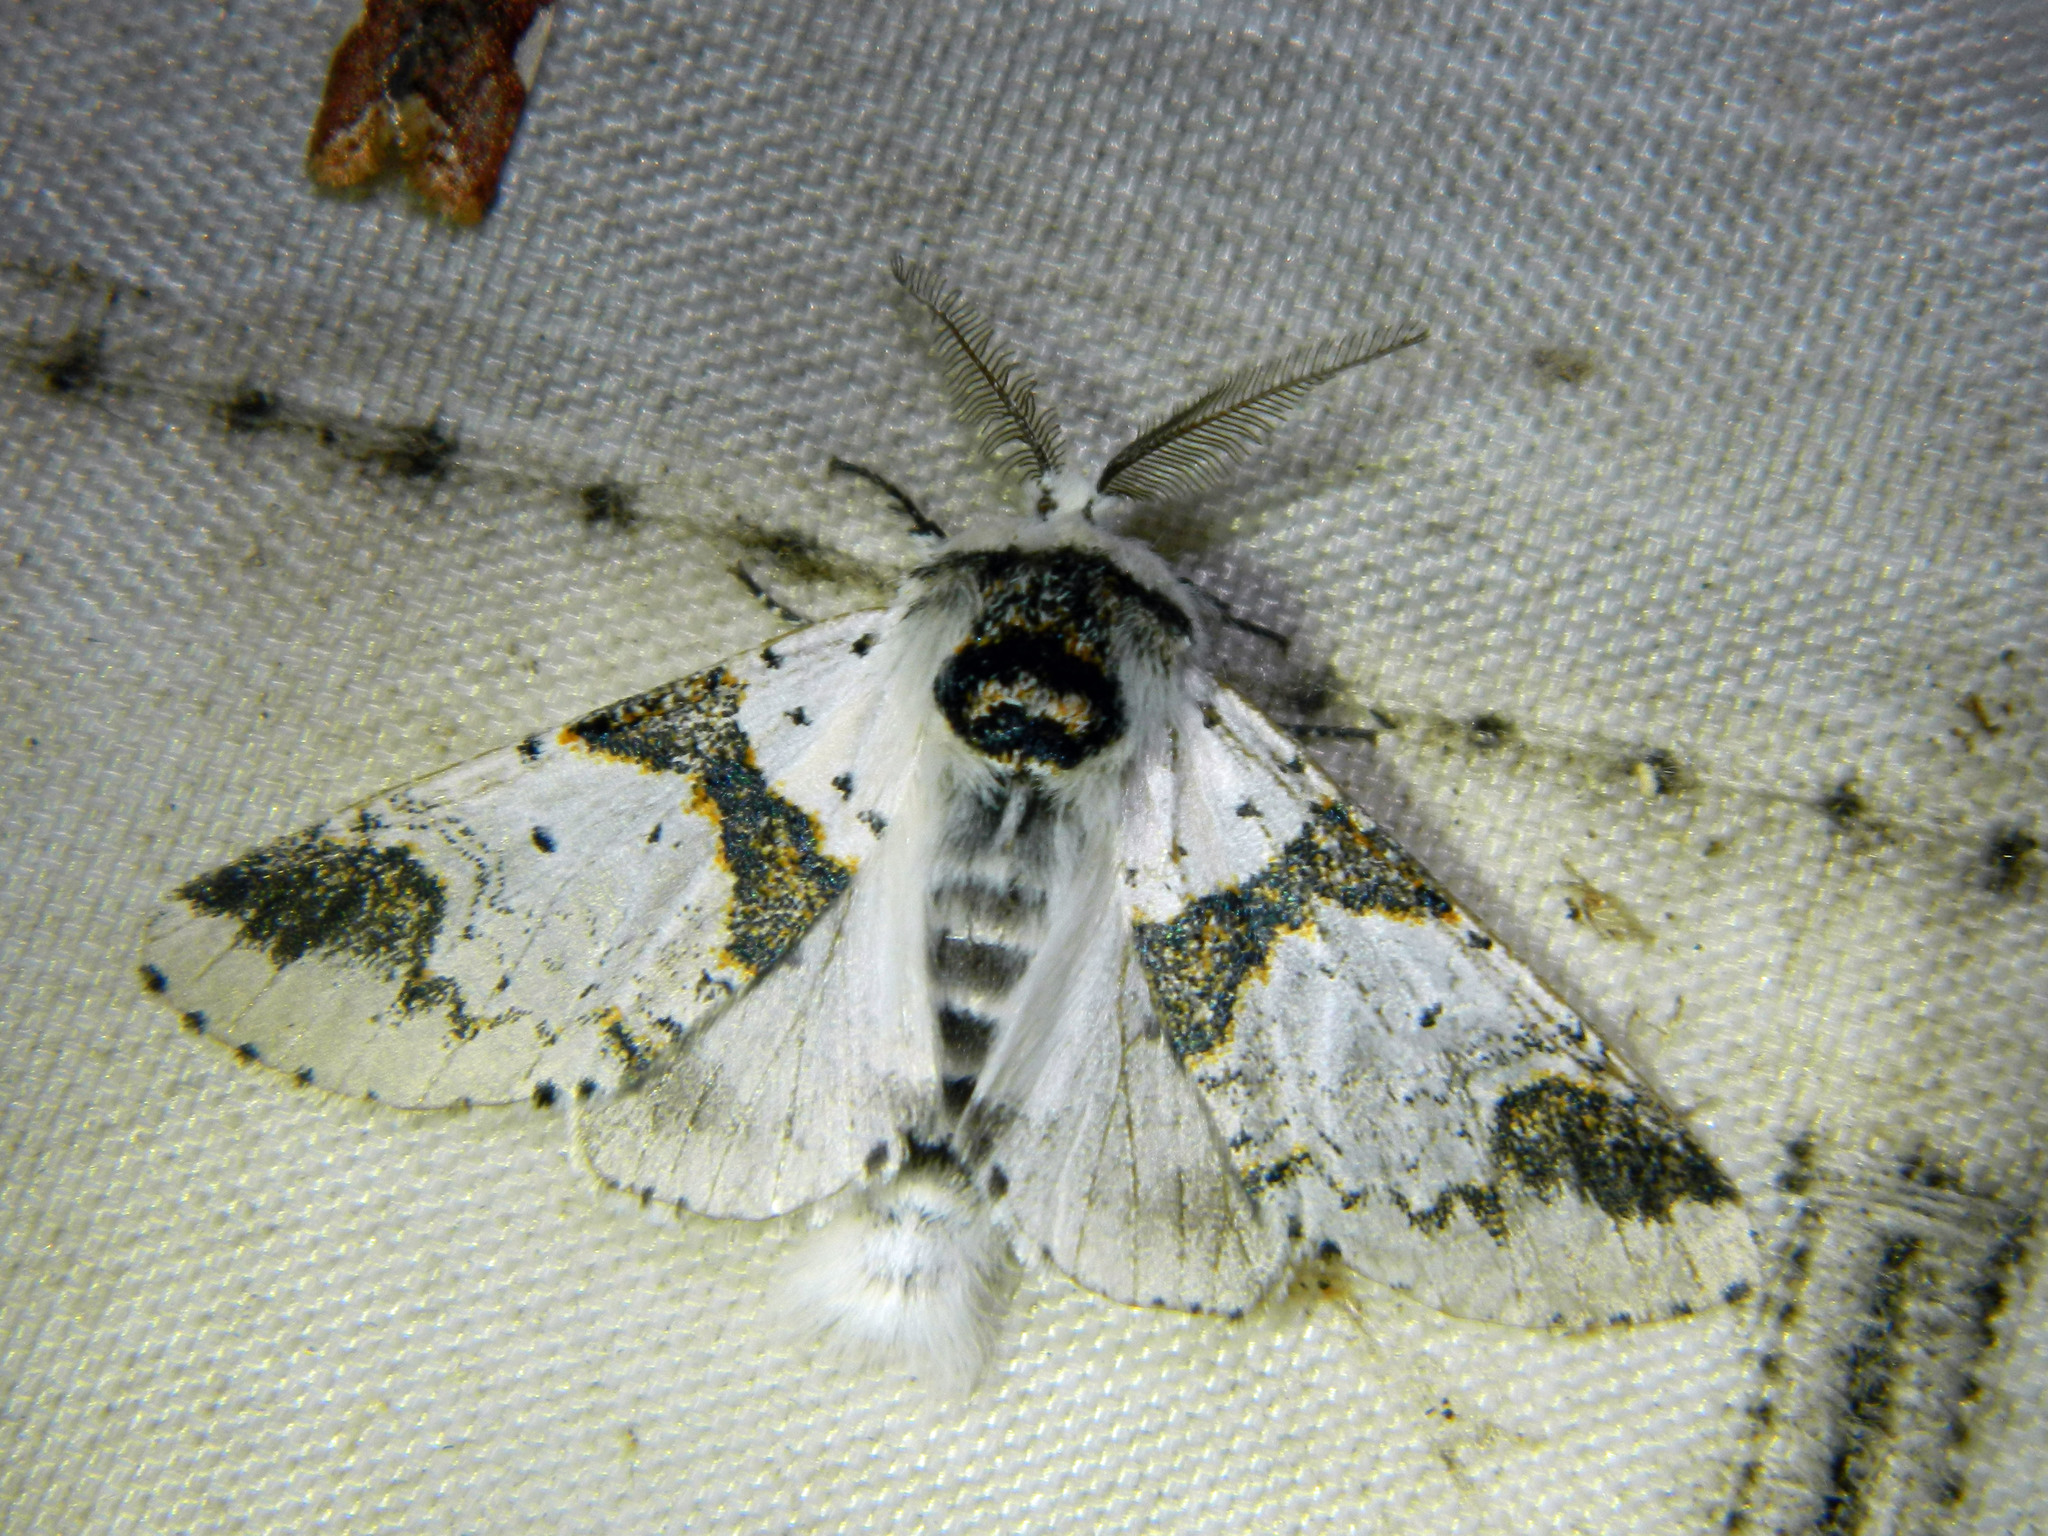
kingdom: Animalia
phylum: Arthropoda
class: Insecta
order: Lepidoptera
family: Notodontidae
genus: Furcula
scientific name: Furcula scolopendrina
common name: Zigzag furcula moth
